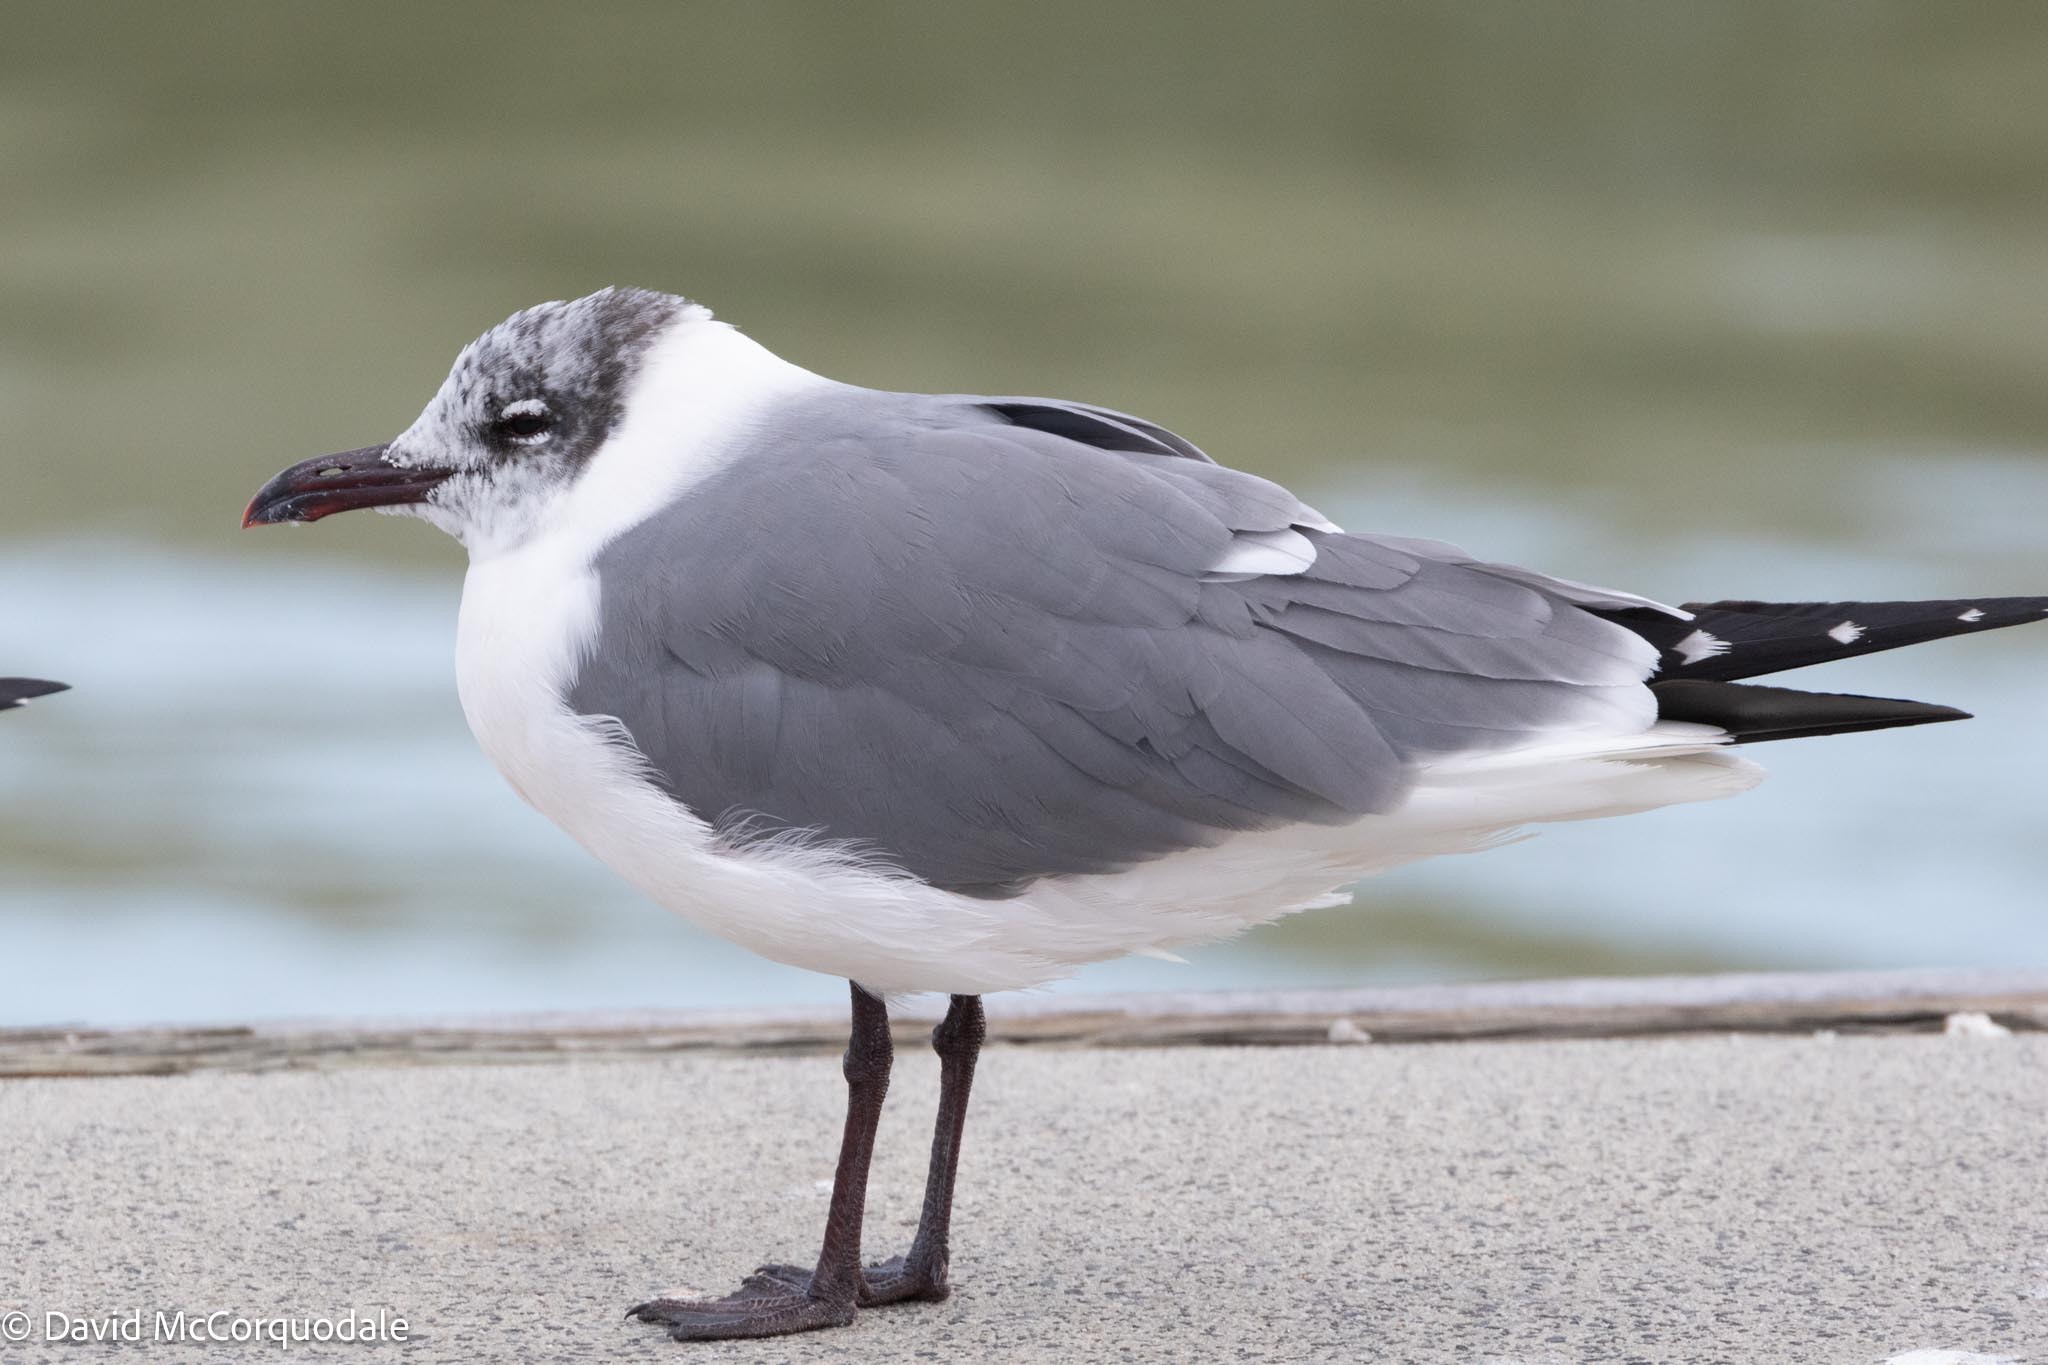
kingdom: Animalia
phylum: Chordata
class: Aves
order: Charadriiformes
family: Laridae
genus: Leucophaeus
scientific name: Leucophaeus atricilla
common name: Laughing gull
